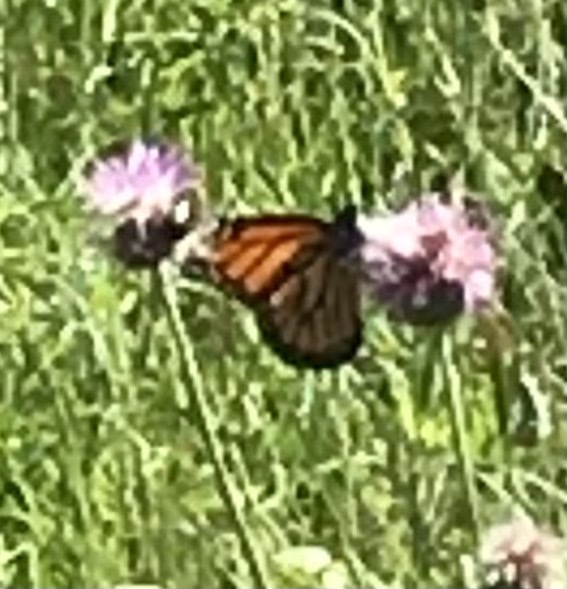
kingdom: Animalia
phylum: Arthropoda
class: Insecta
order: Lepidoptera
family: Nymphalidae
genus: Danaus
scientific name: Danaus plexippus
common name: Monarch
